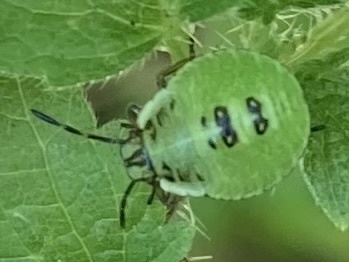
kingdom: Animalia
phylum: Arthropoda
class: Insecta
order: Hemiptera
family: Pentatomidae
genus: Palomena
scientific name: Palomena prasina
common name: Green shieldbug
